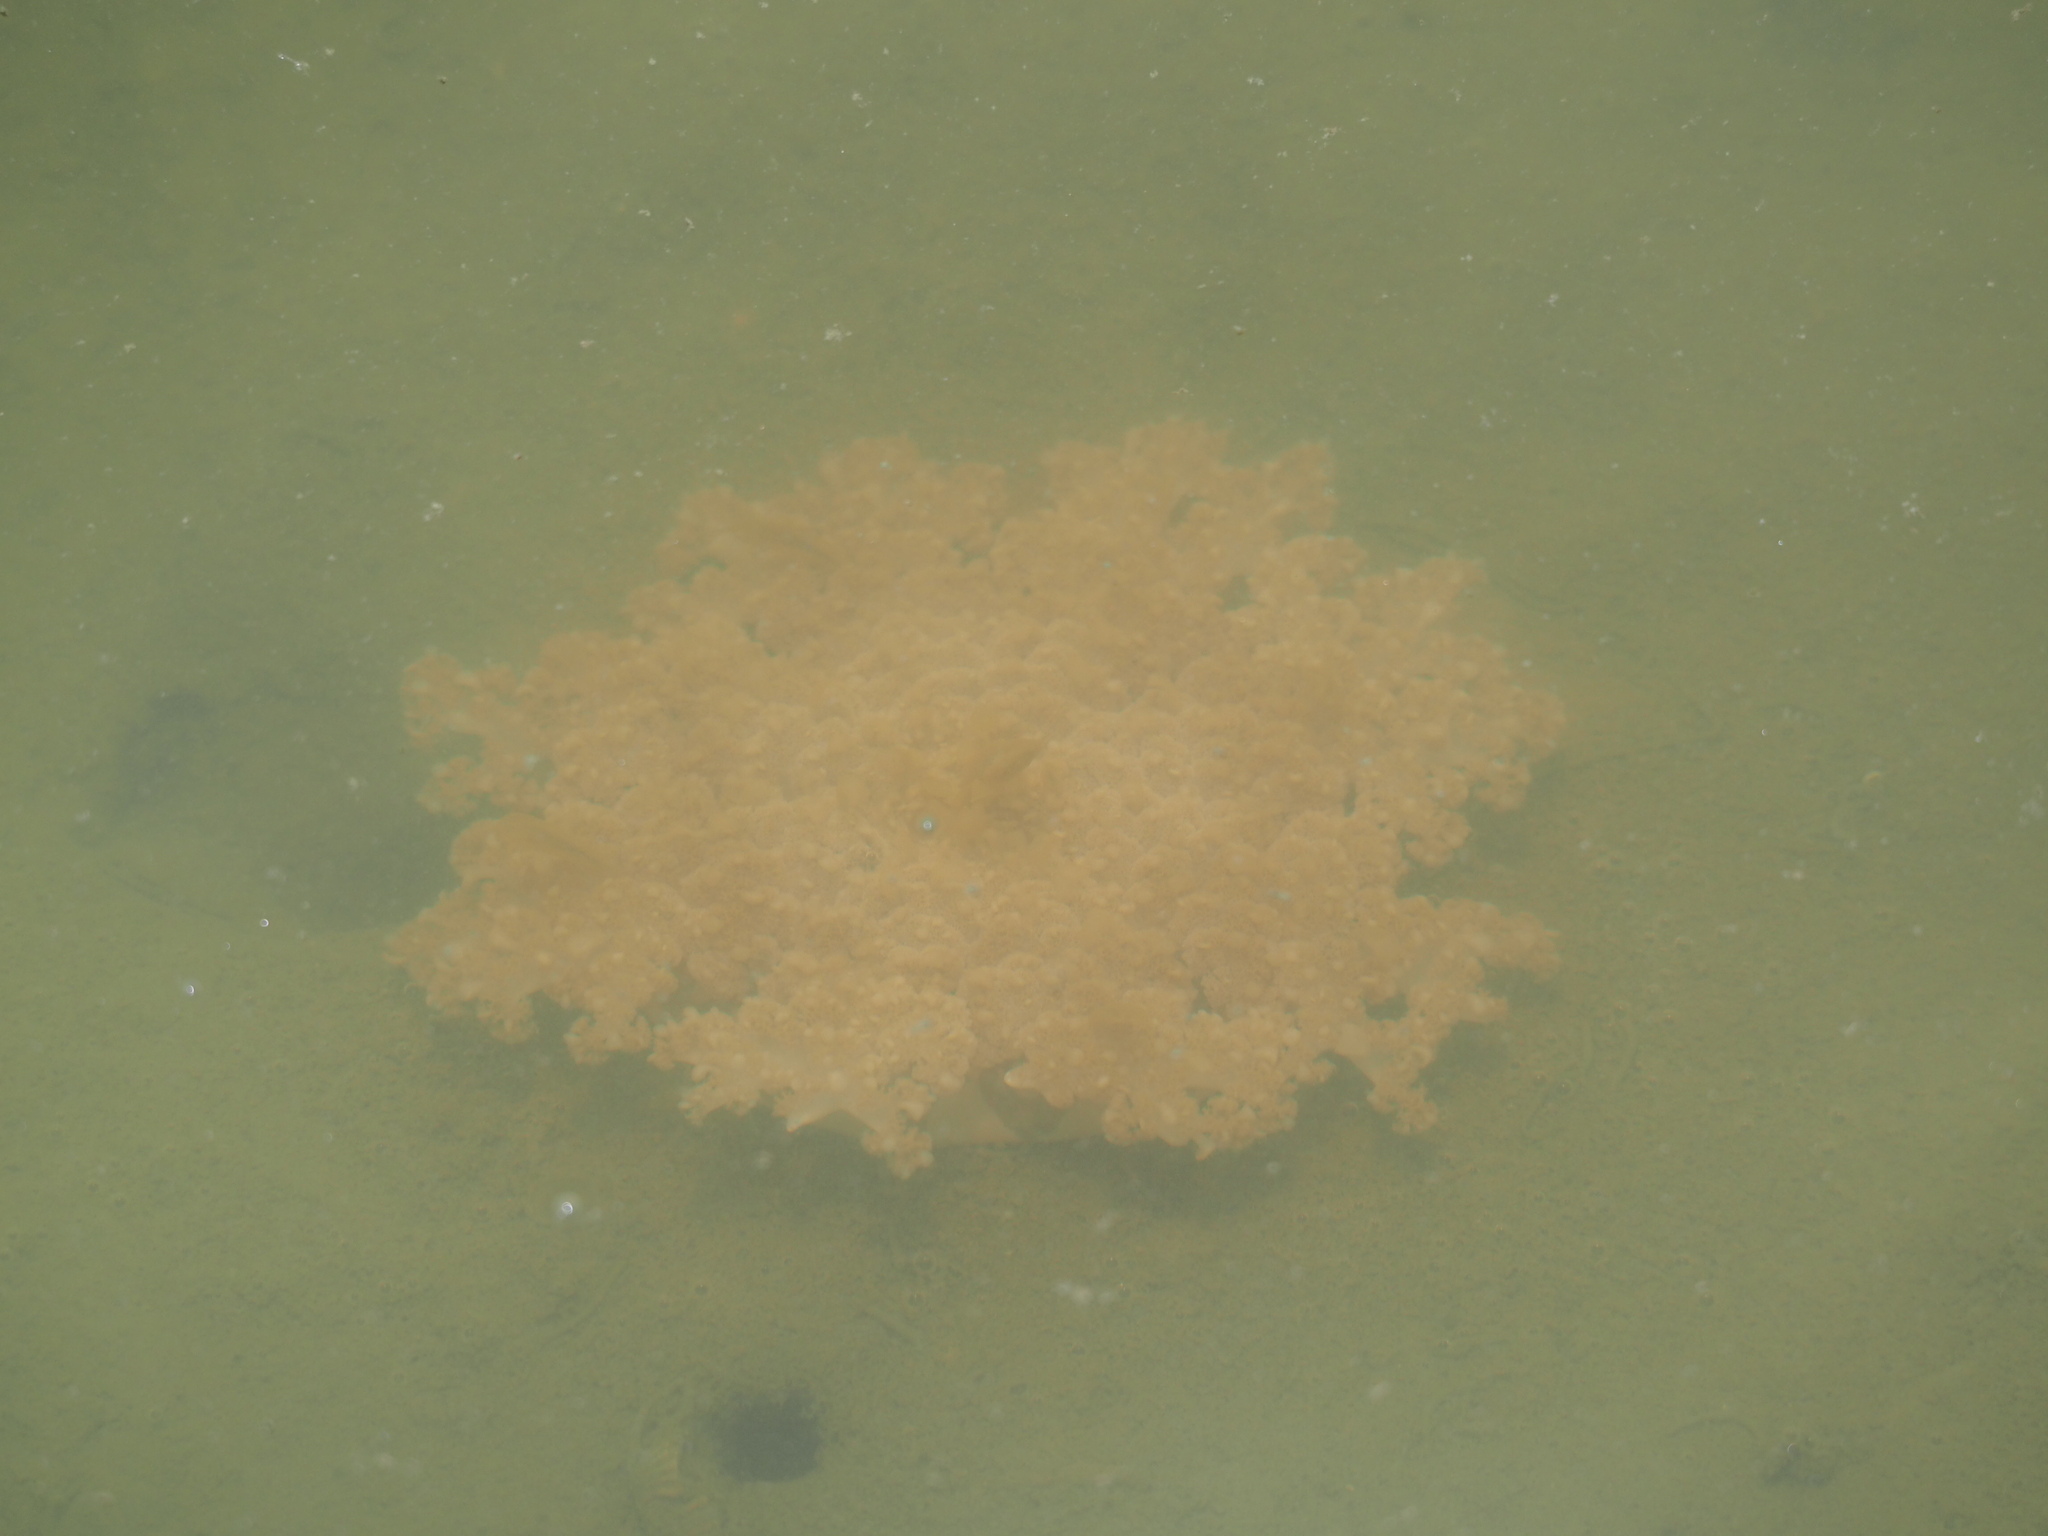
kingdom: Animalia
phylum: Cnidaria
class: Scyphozoa
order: Rhizostomeae
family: Cassiopeidae
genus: Cassiopea
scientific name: Cassiopea andromeda
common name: Upside-down jellyfish
